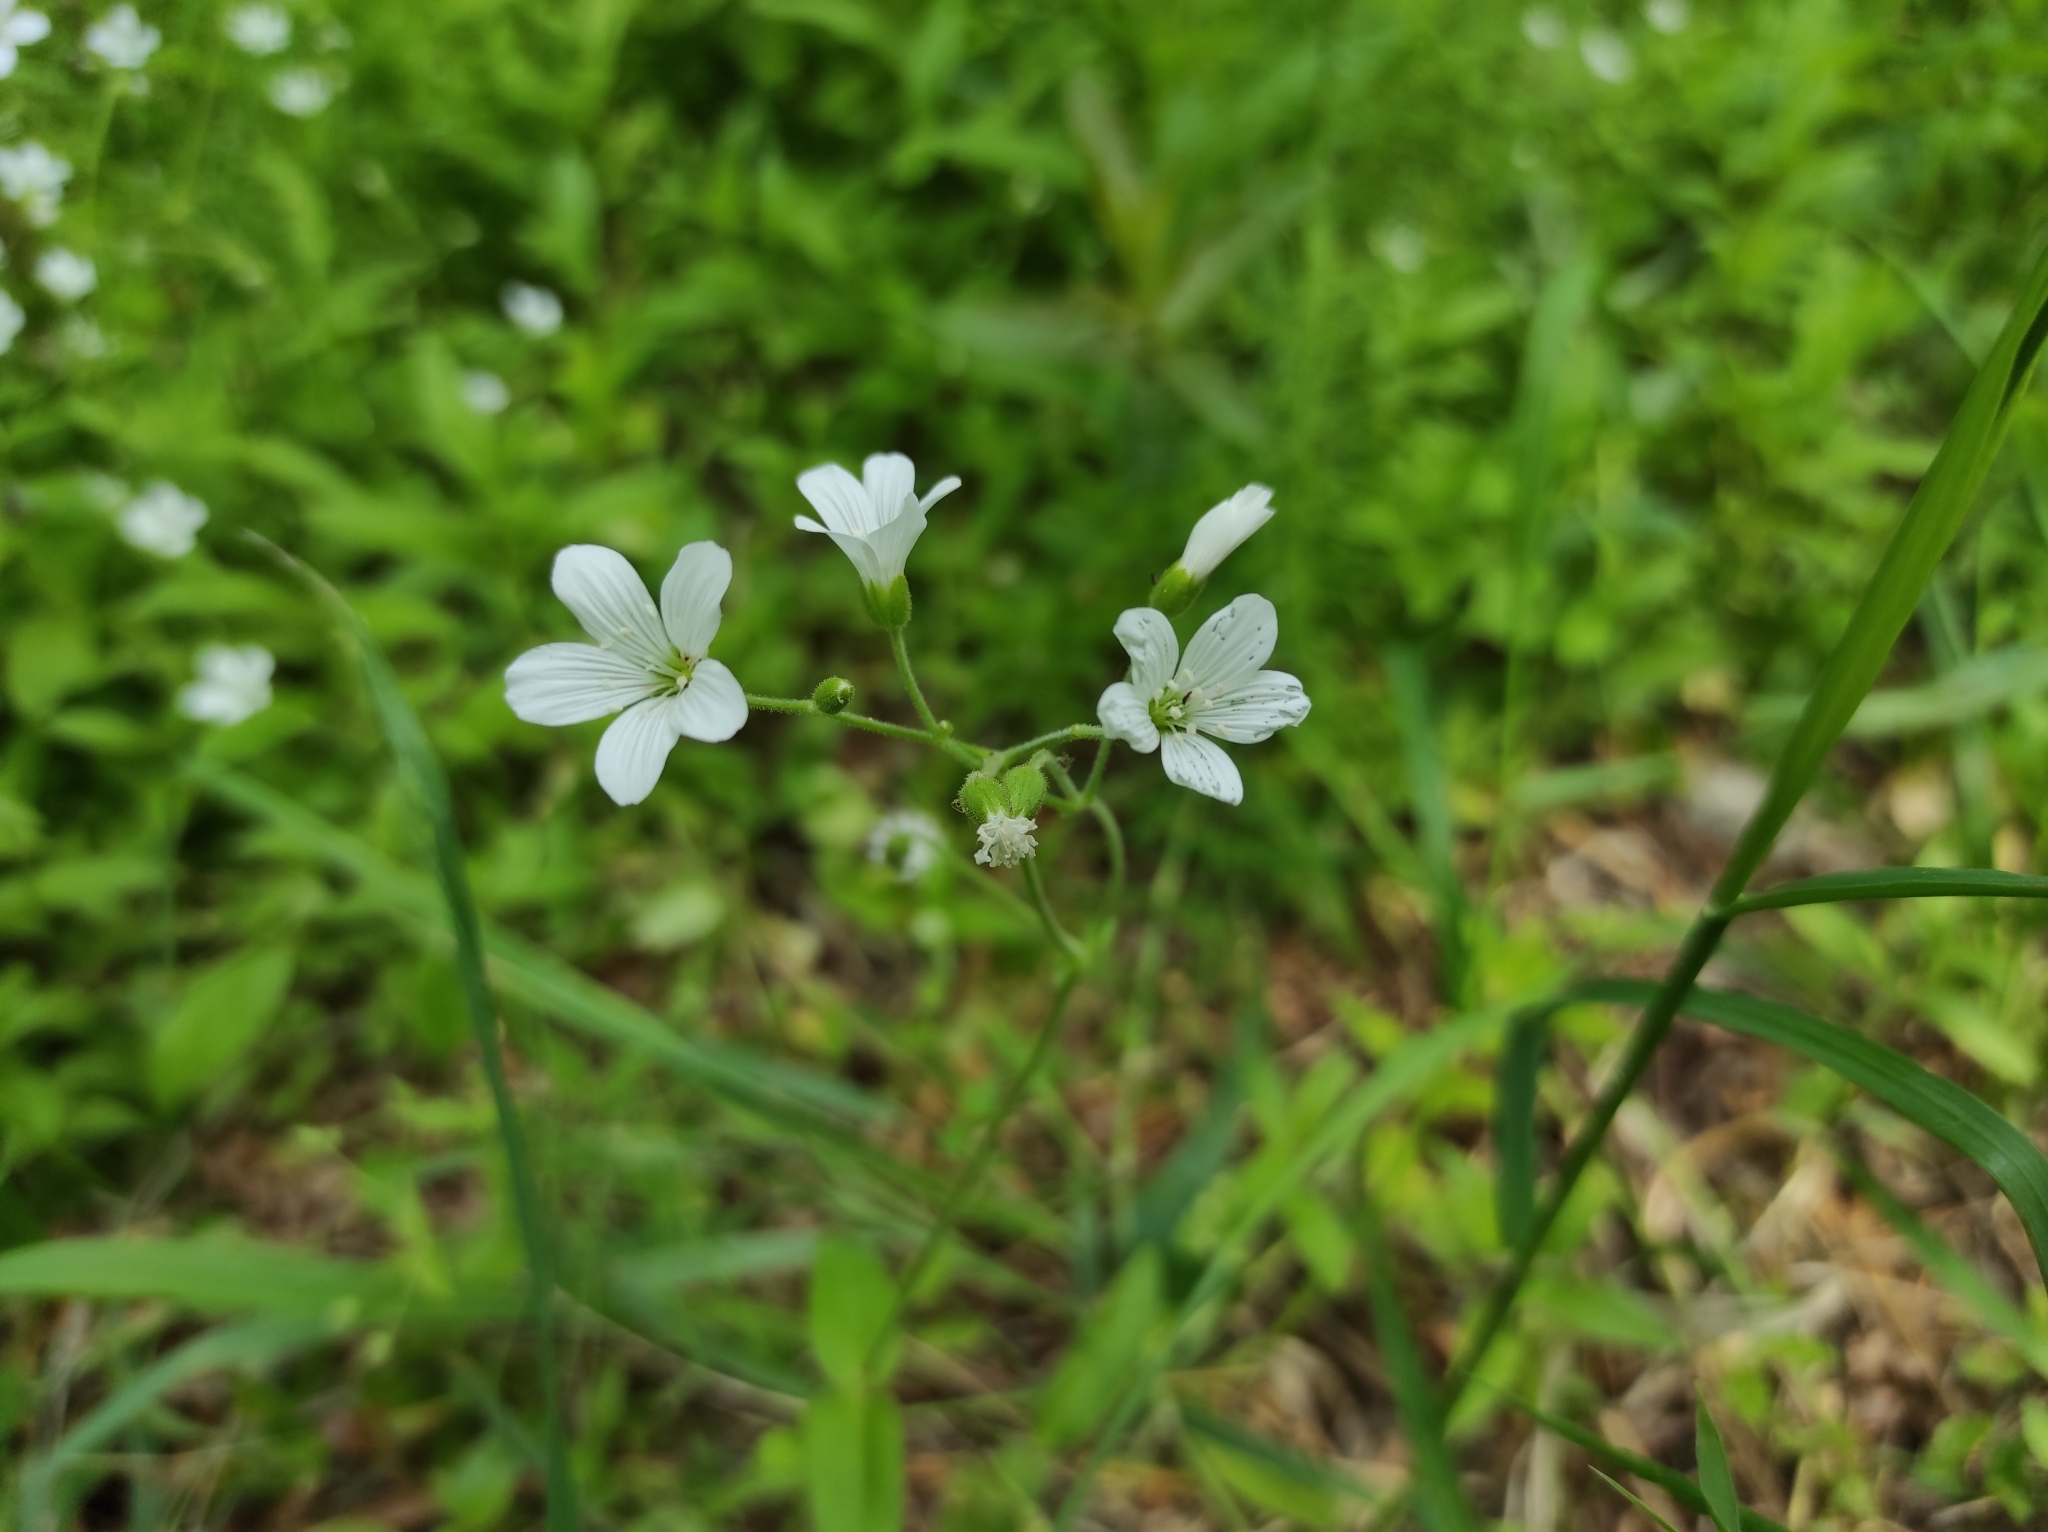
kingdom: Plantae
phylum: Tracheophyta
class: Magnoliopsida
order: Caryophyllales
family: Caryophyllaceae
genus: Cerastium
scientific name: Cerastium pauciflorum
